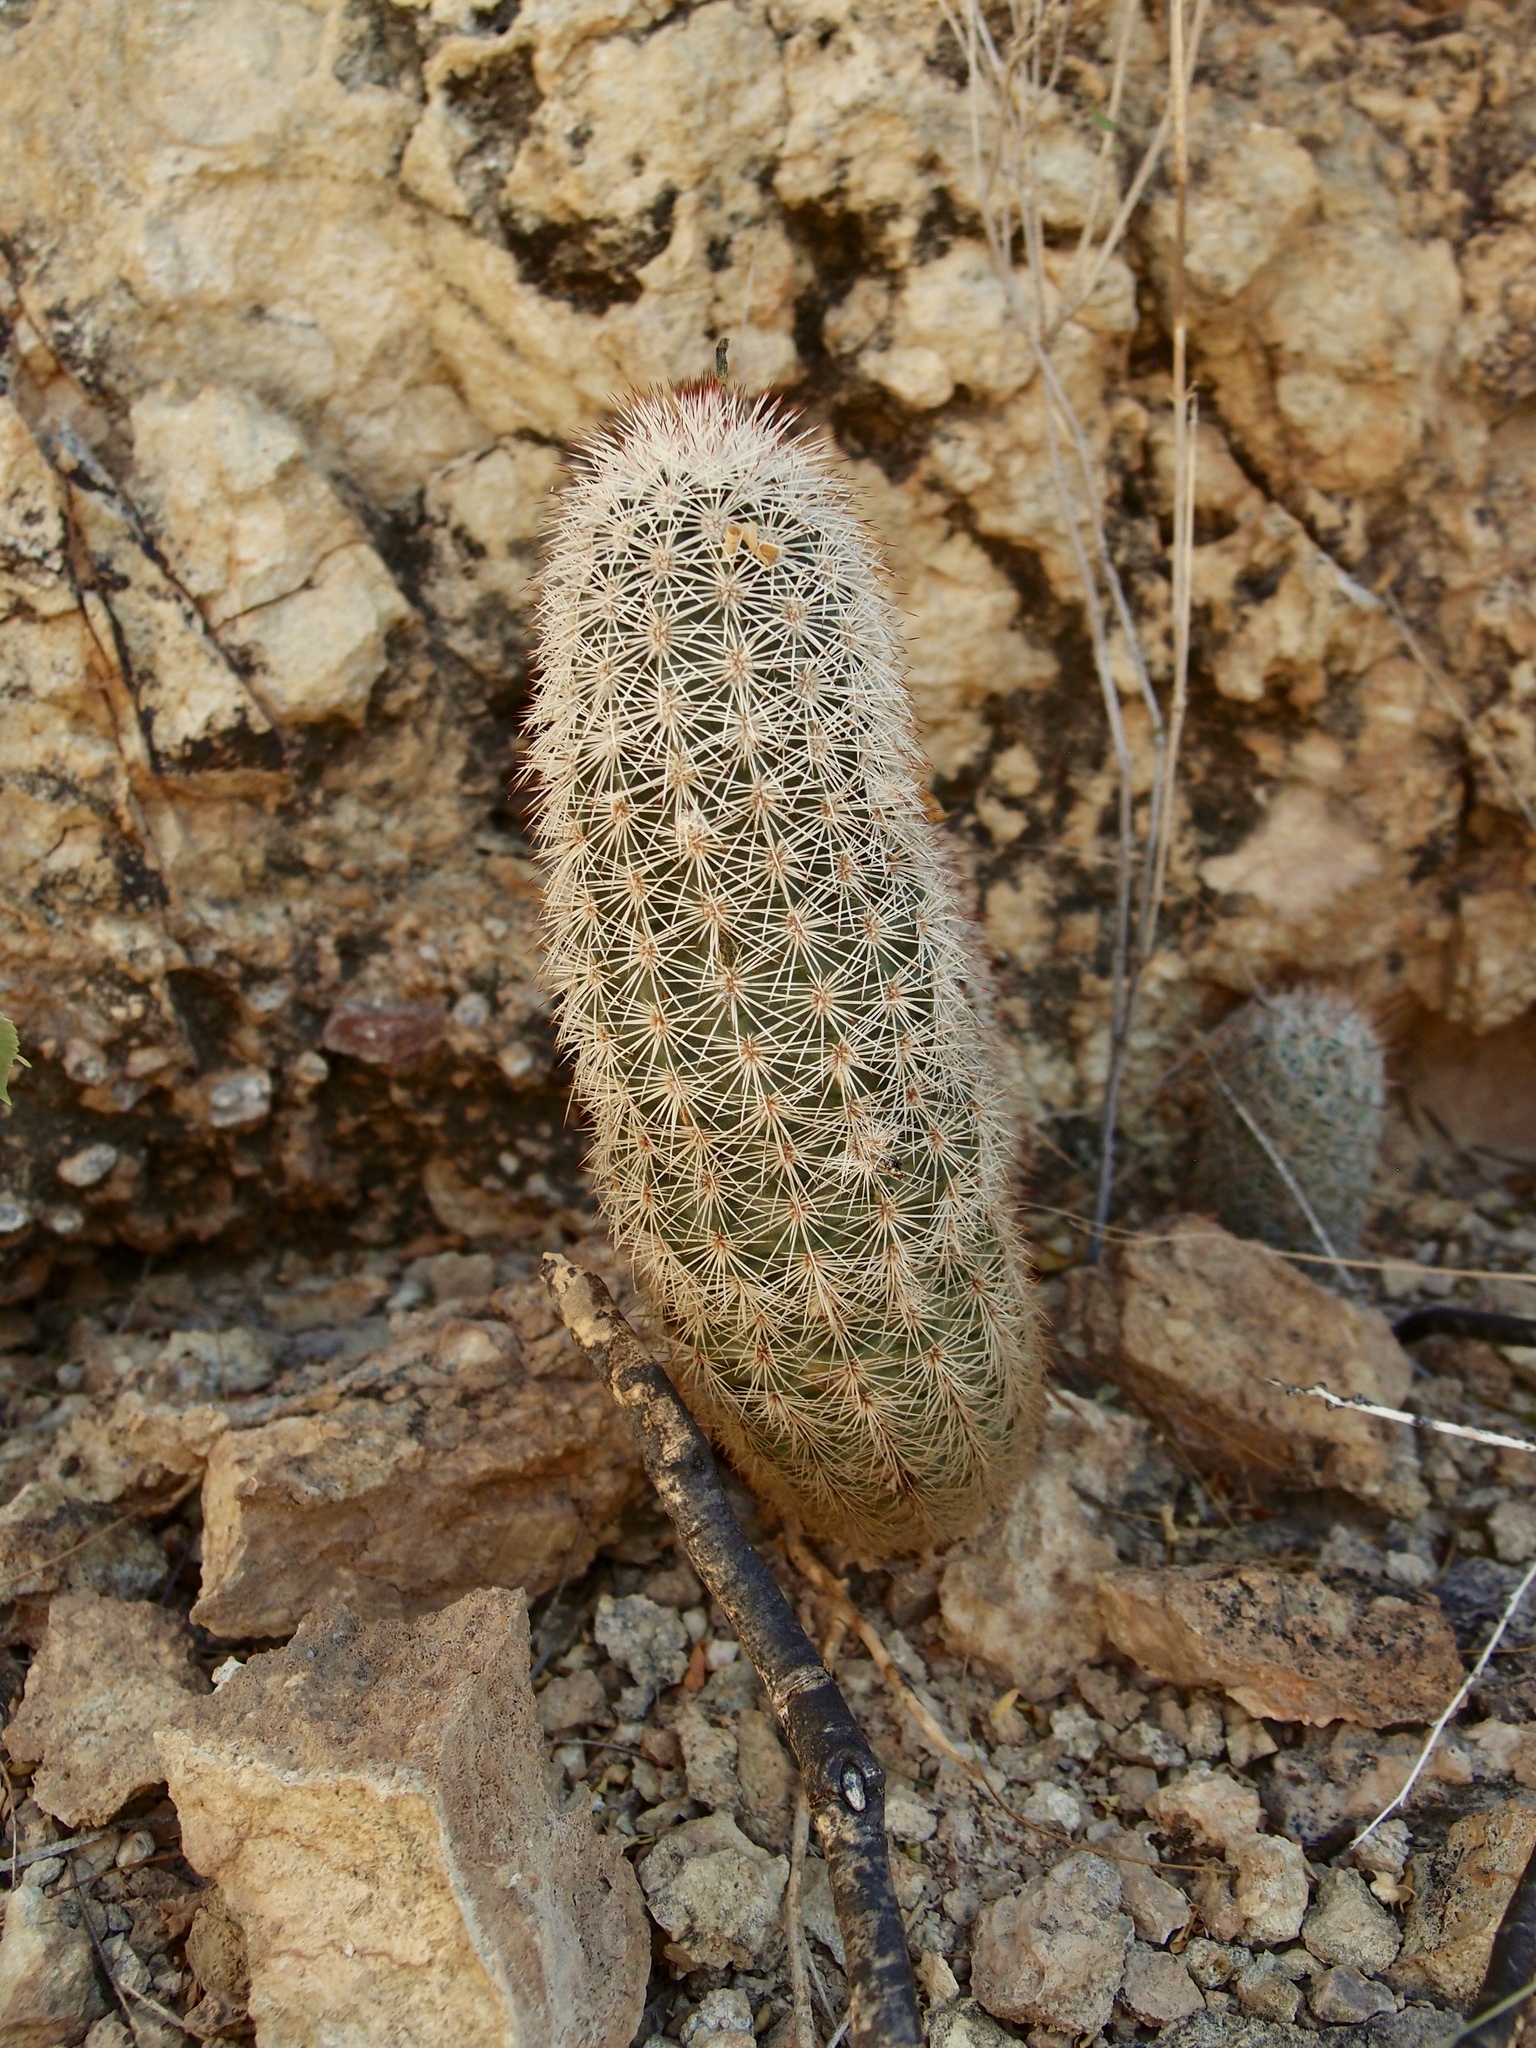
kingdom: Plantae
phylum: Tracheophyta
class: Magnoliopsida
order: Caryophyllales
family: Cactaceae
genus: Echinocereus
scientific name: Echinocereus scopulorum
